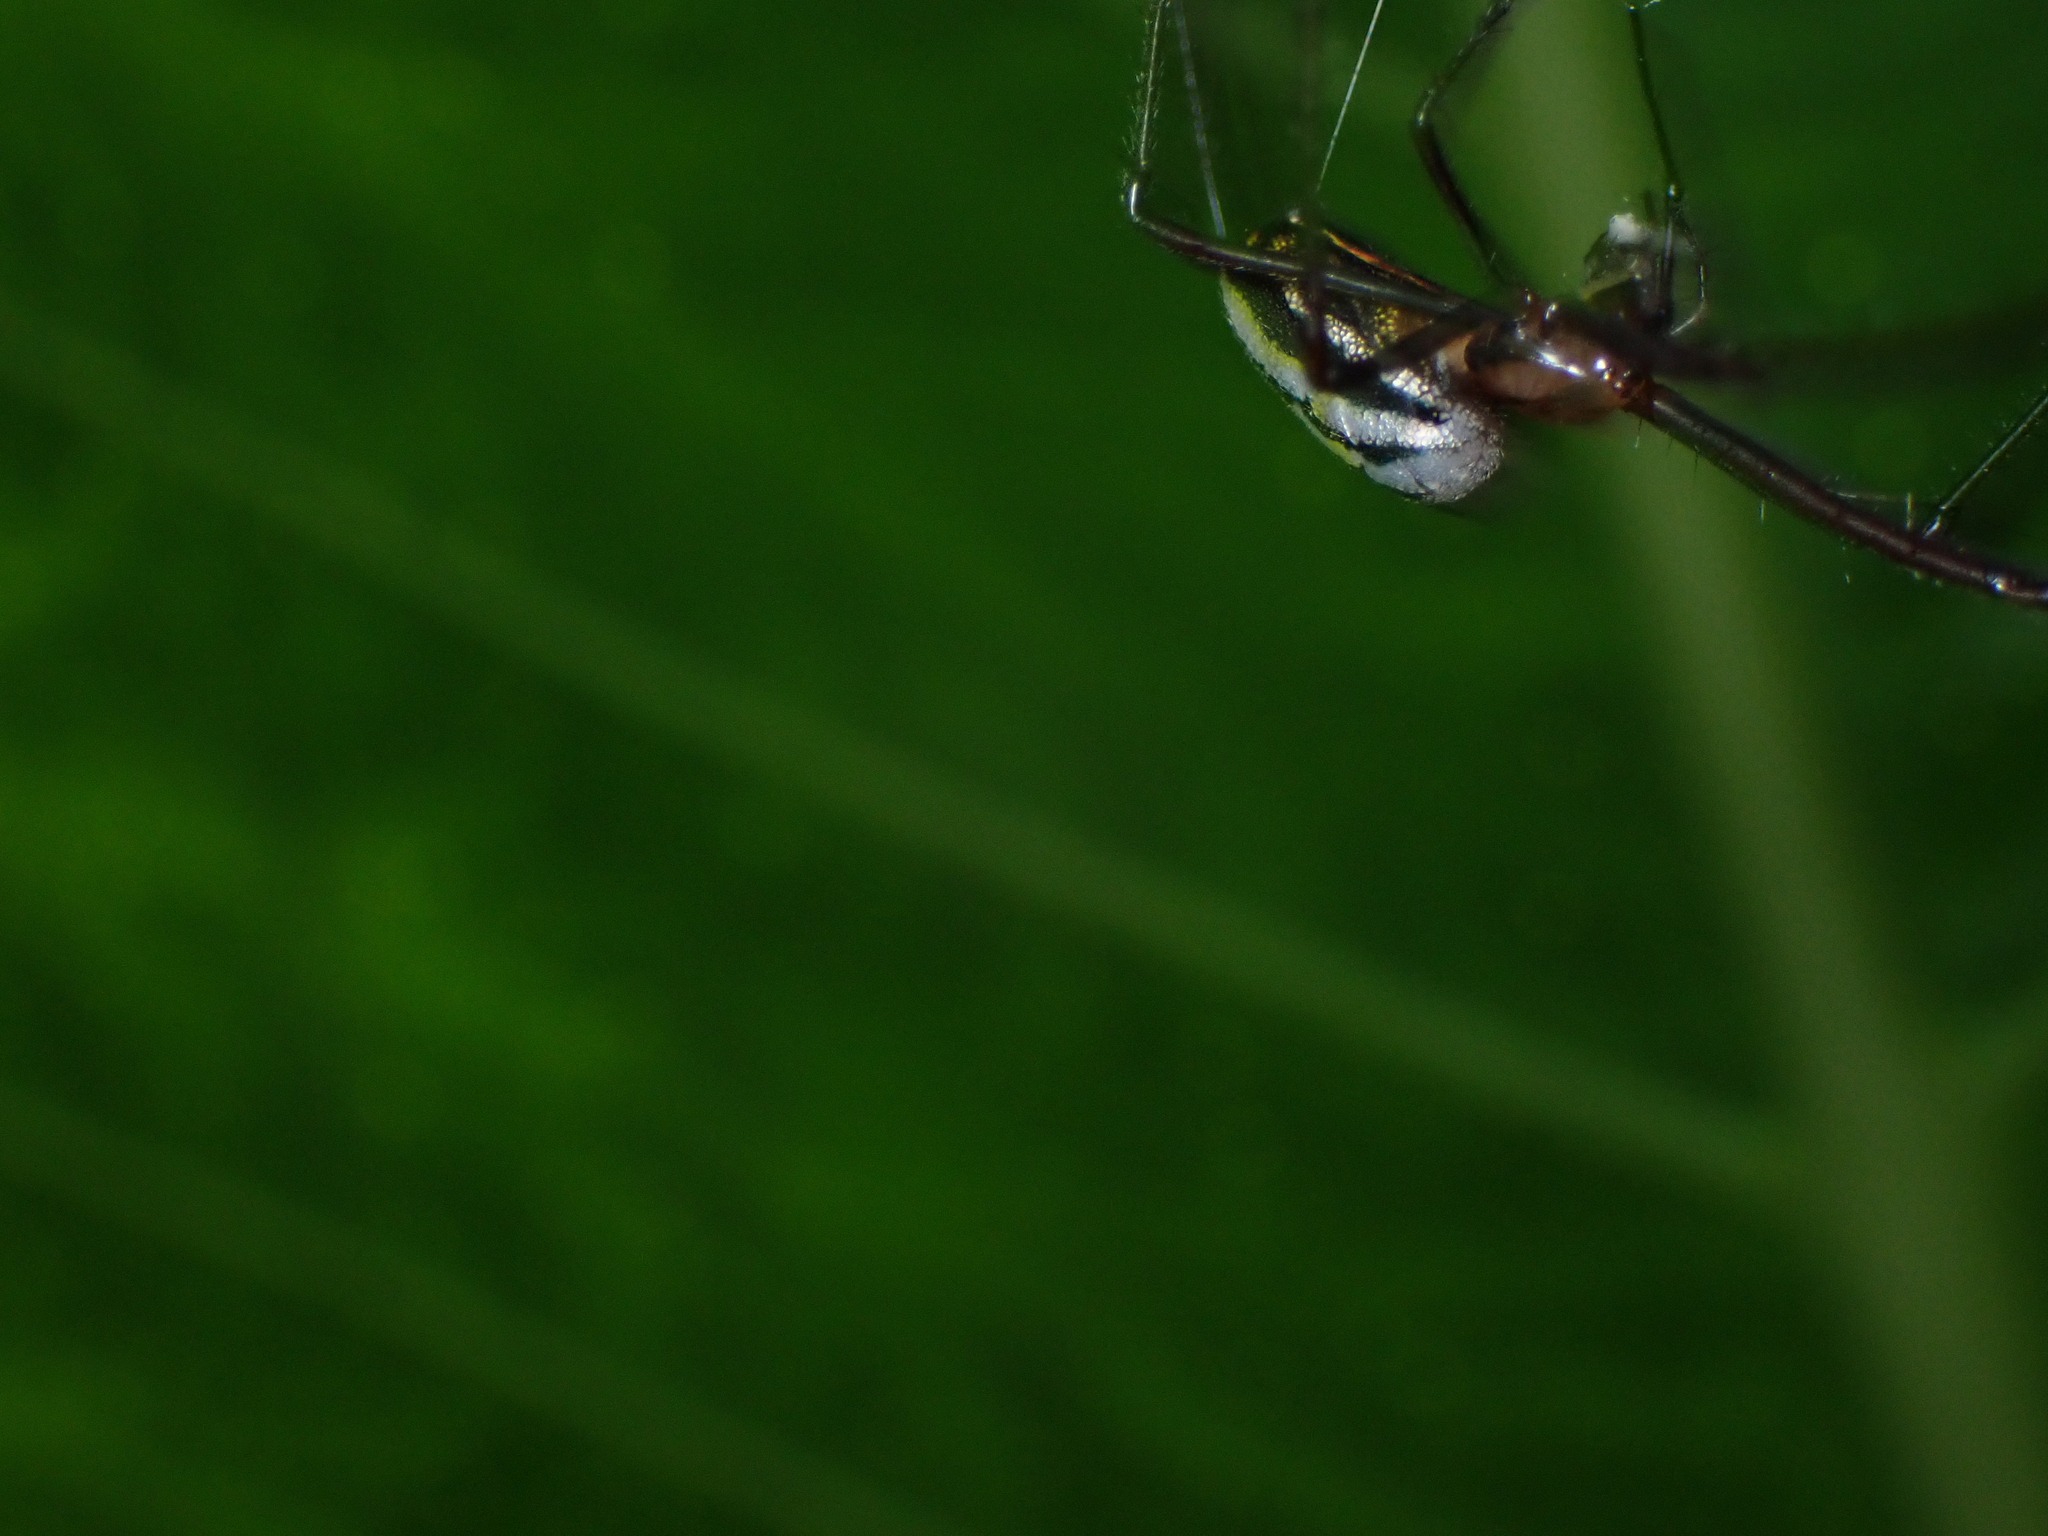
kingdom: Animalia
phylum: Arthropoda
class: Arachnida
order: Araneae
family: Tetragnathidae
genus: Leucauge
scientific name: Leucauge hebridisiana
